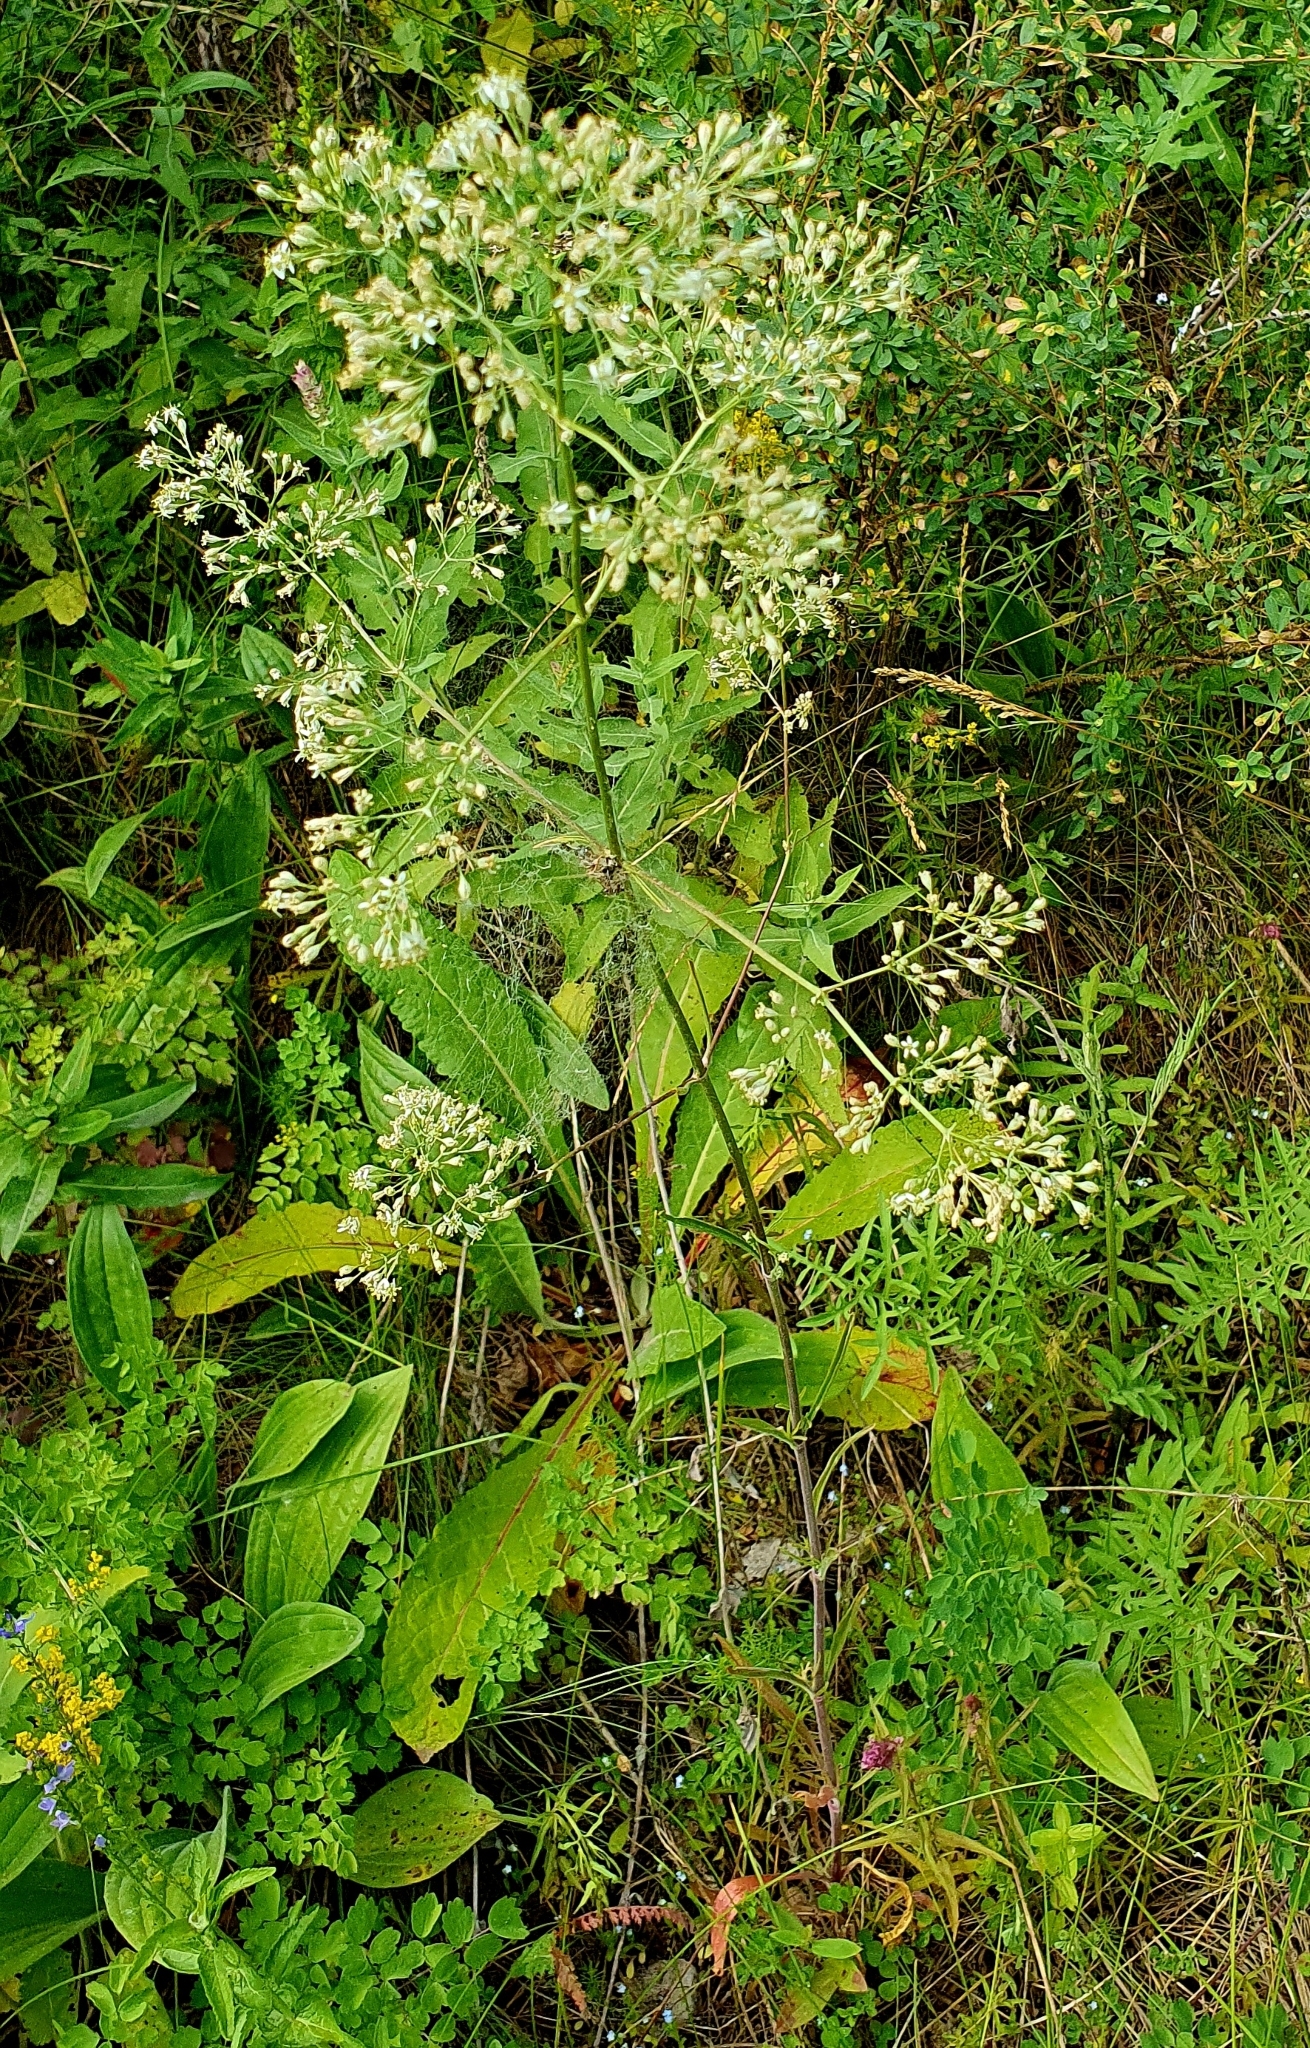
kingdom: Plantae
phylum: Tracheophyta
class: Magnoliopsida
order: Caryophyllales
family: Caryophyllaceae
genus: Silene
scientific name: Silene wolgensis
